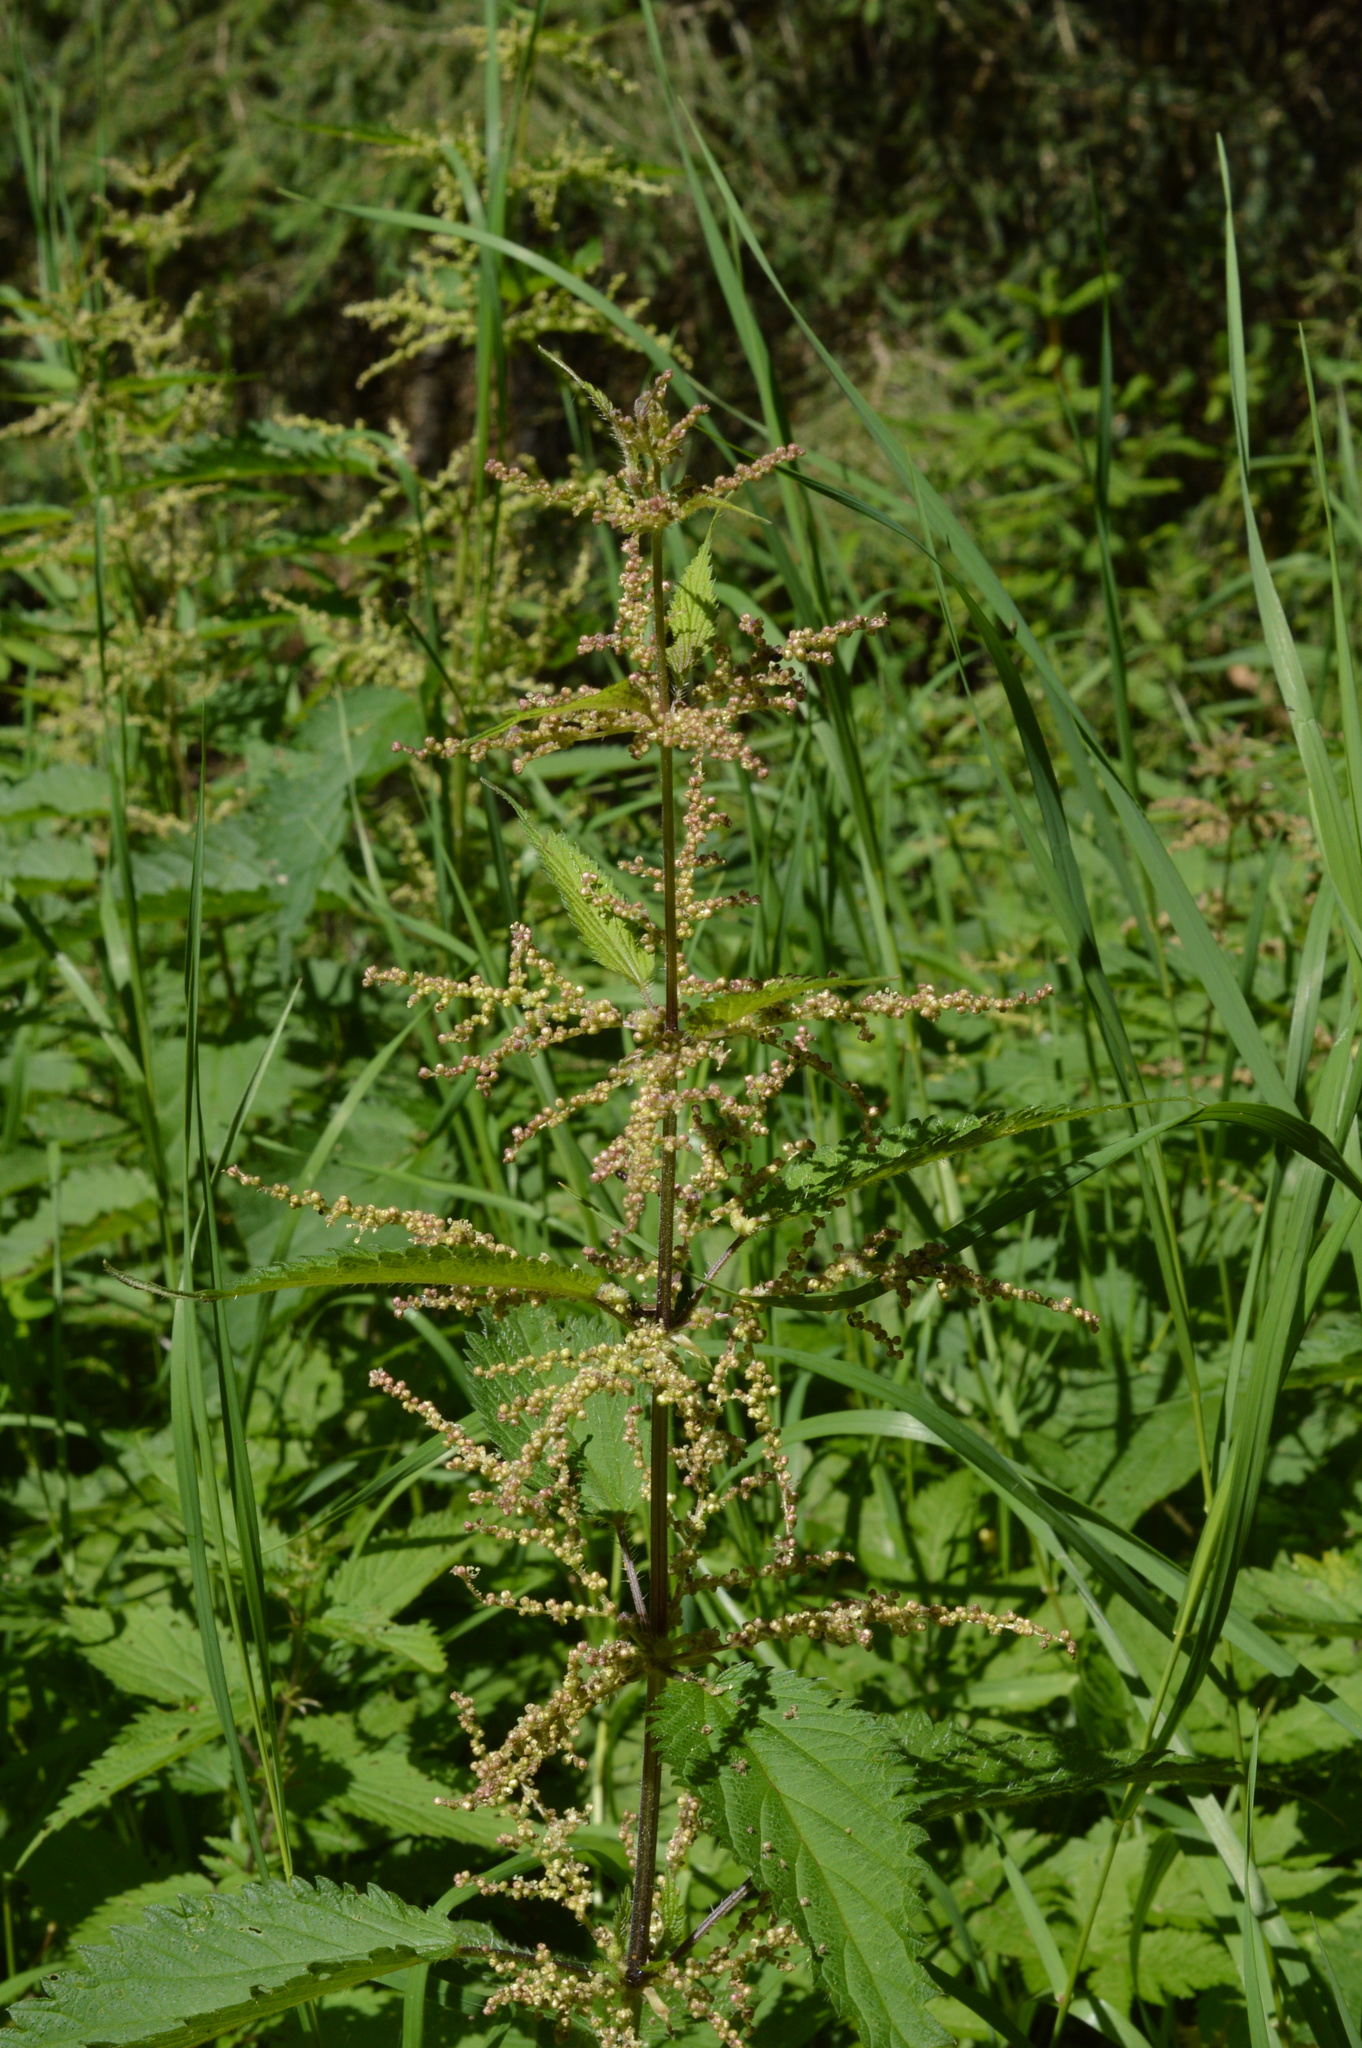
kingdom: Plantae
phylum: Tracheophyta
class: Magnoliopsida
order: Rosales
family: Urticaceae
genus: Urtica
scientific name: Urtica dioica
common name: Common nettle
